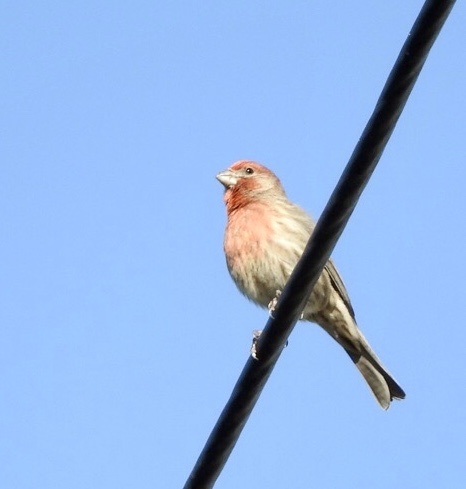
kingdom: Animalia
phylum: Chordata
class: Aves
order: Passeriformes
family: Fringillidae
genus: Haemorhous
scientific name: Haemorhous mexicanus
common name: House finch
